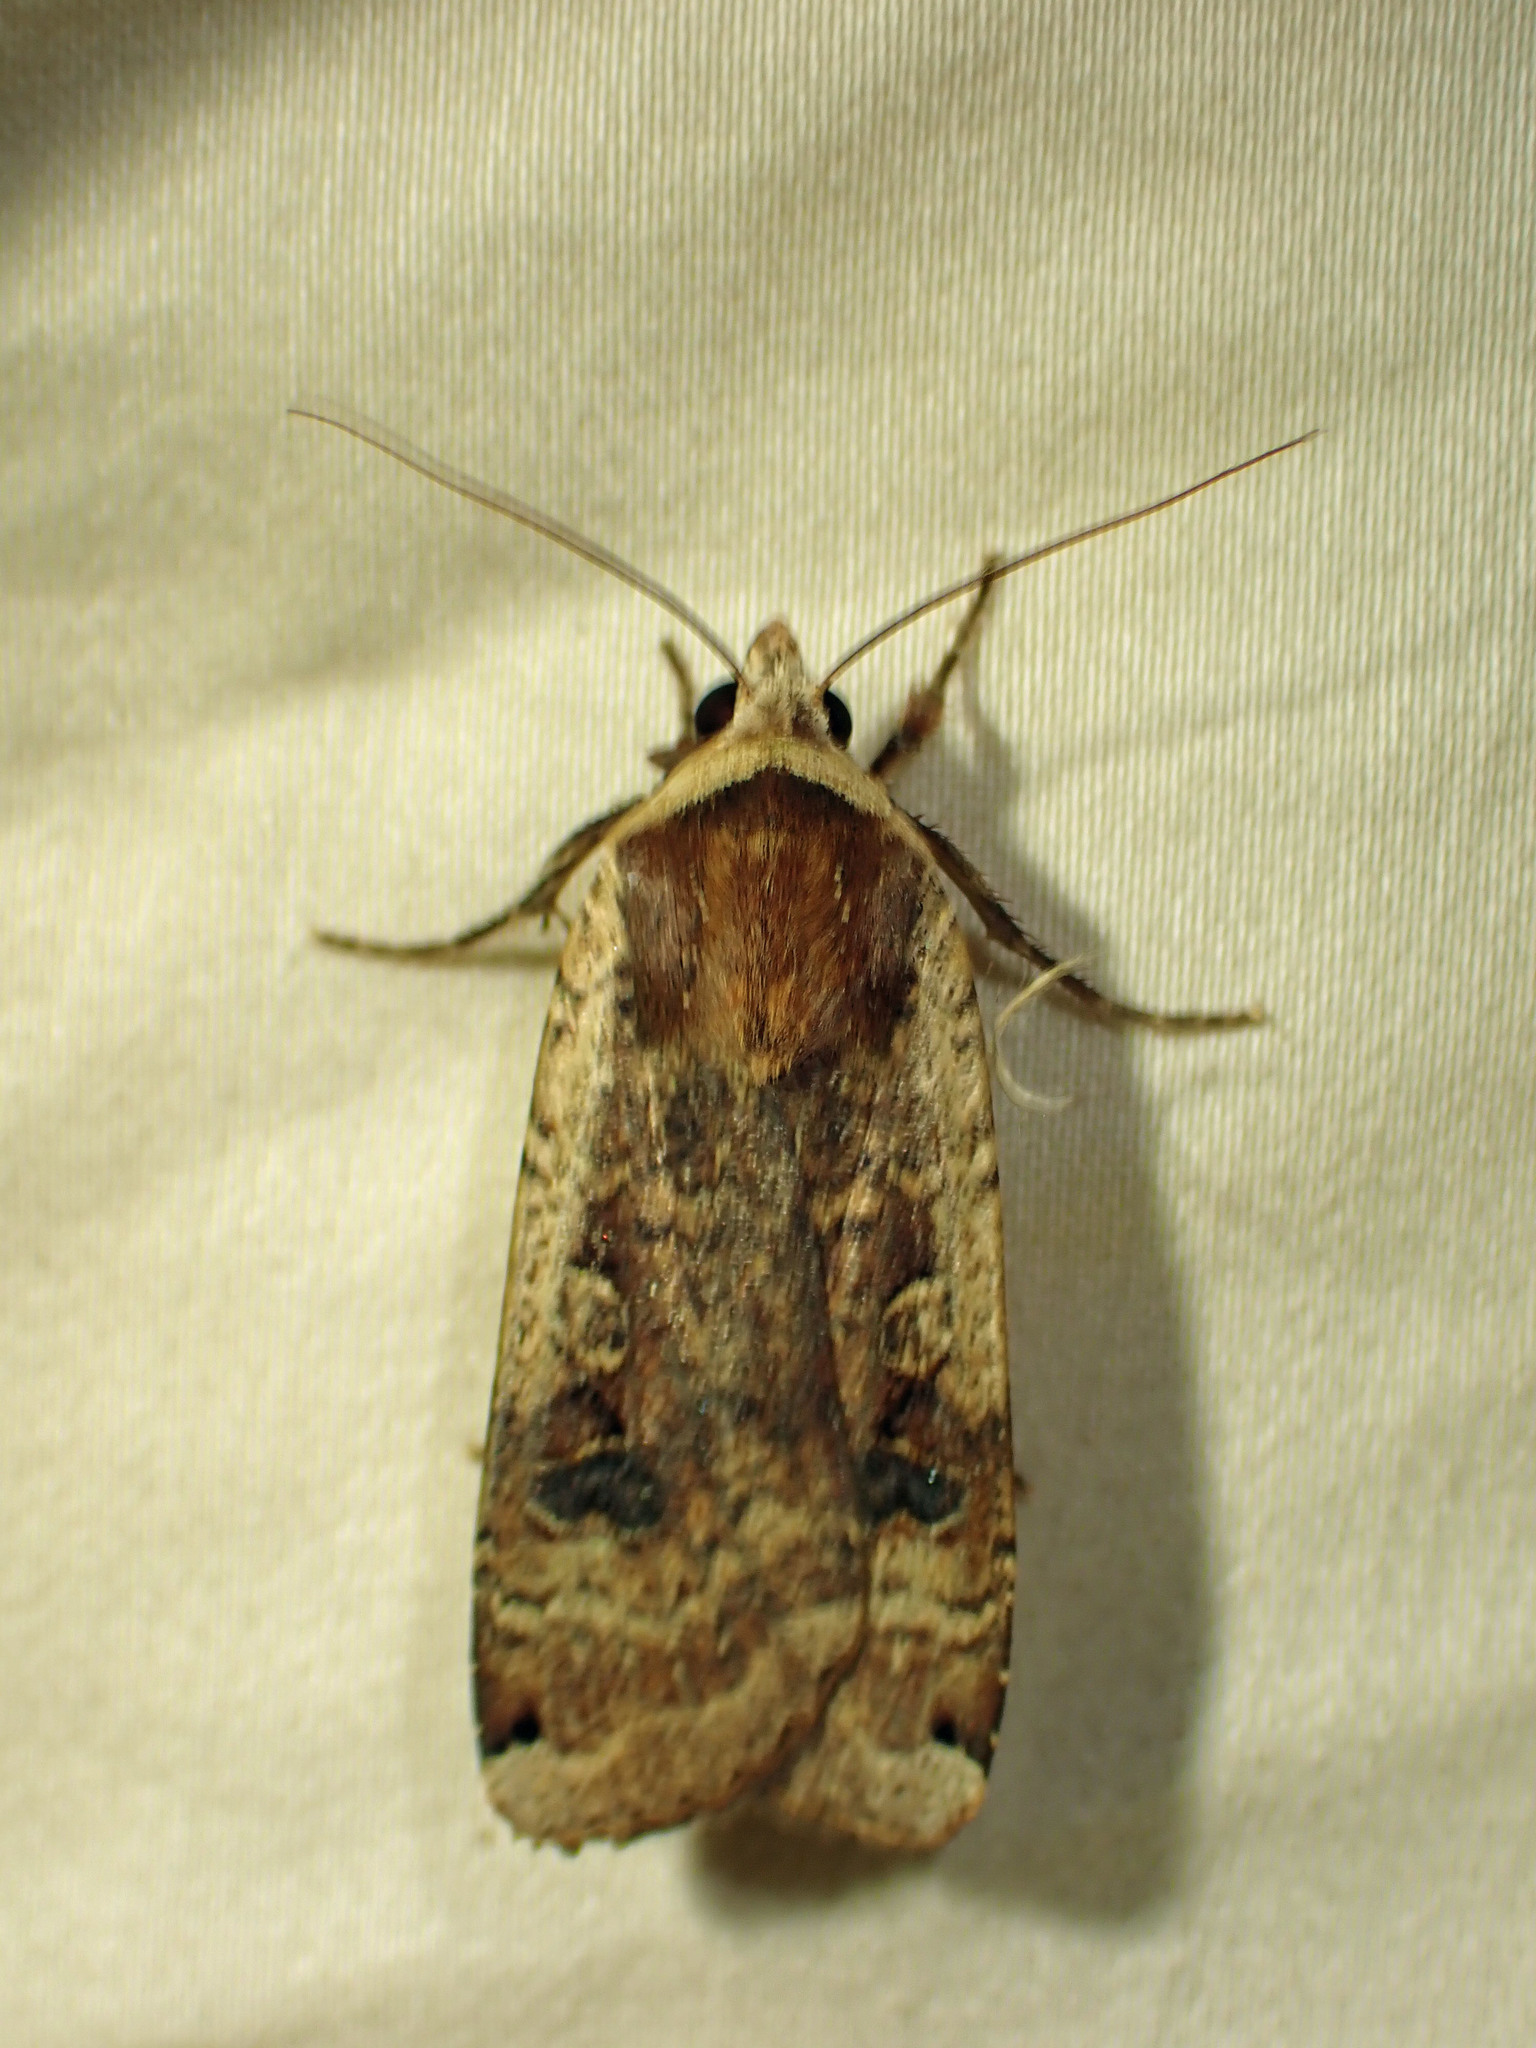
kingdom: Animalia
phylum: Arthropoda
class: Insecta
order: Lepidoptera
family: Noctuidae
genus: Noctua
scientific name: Noctua pronuba
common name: Large yellow underwing
